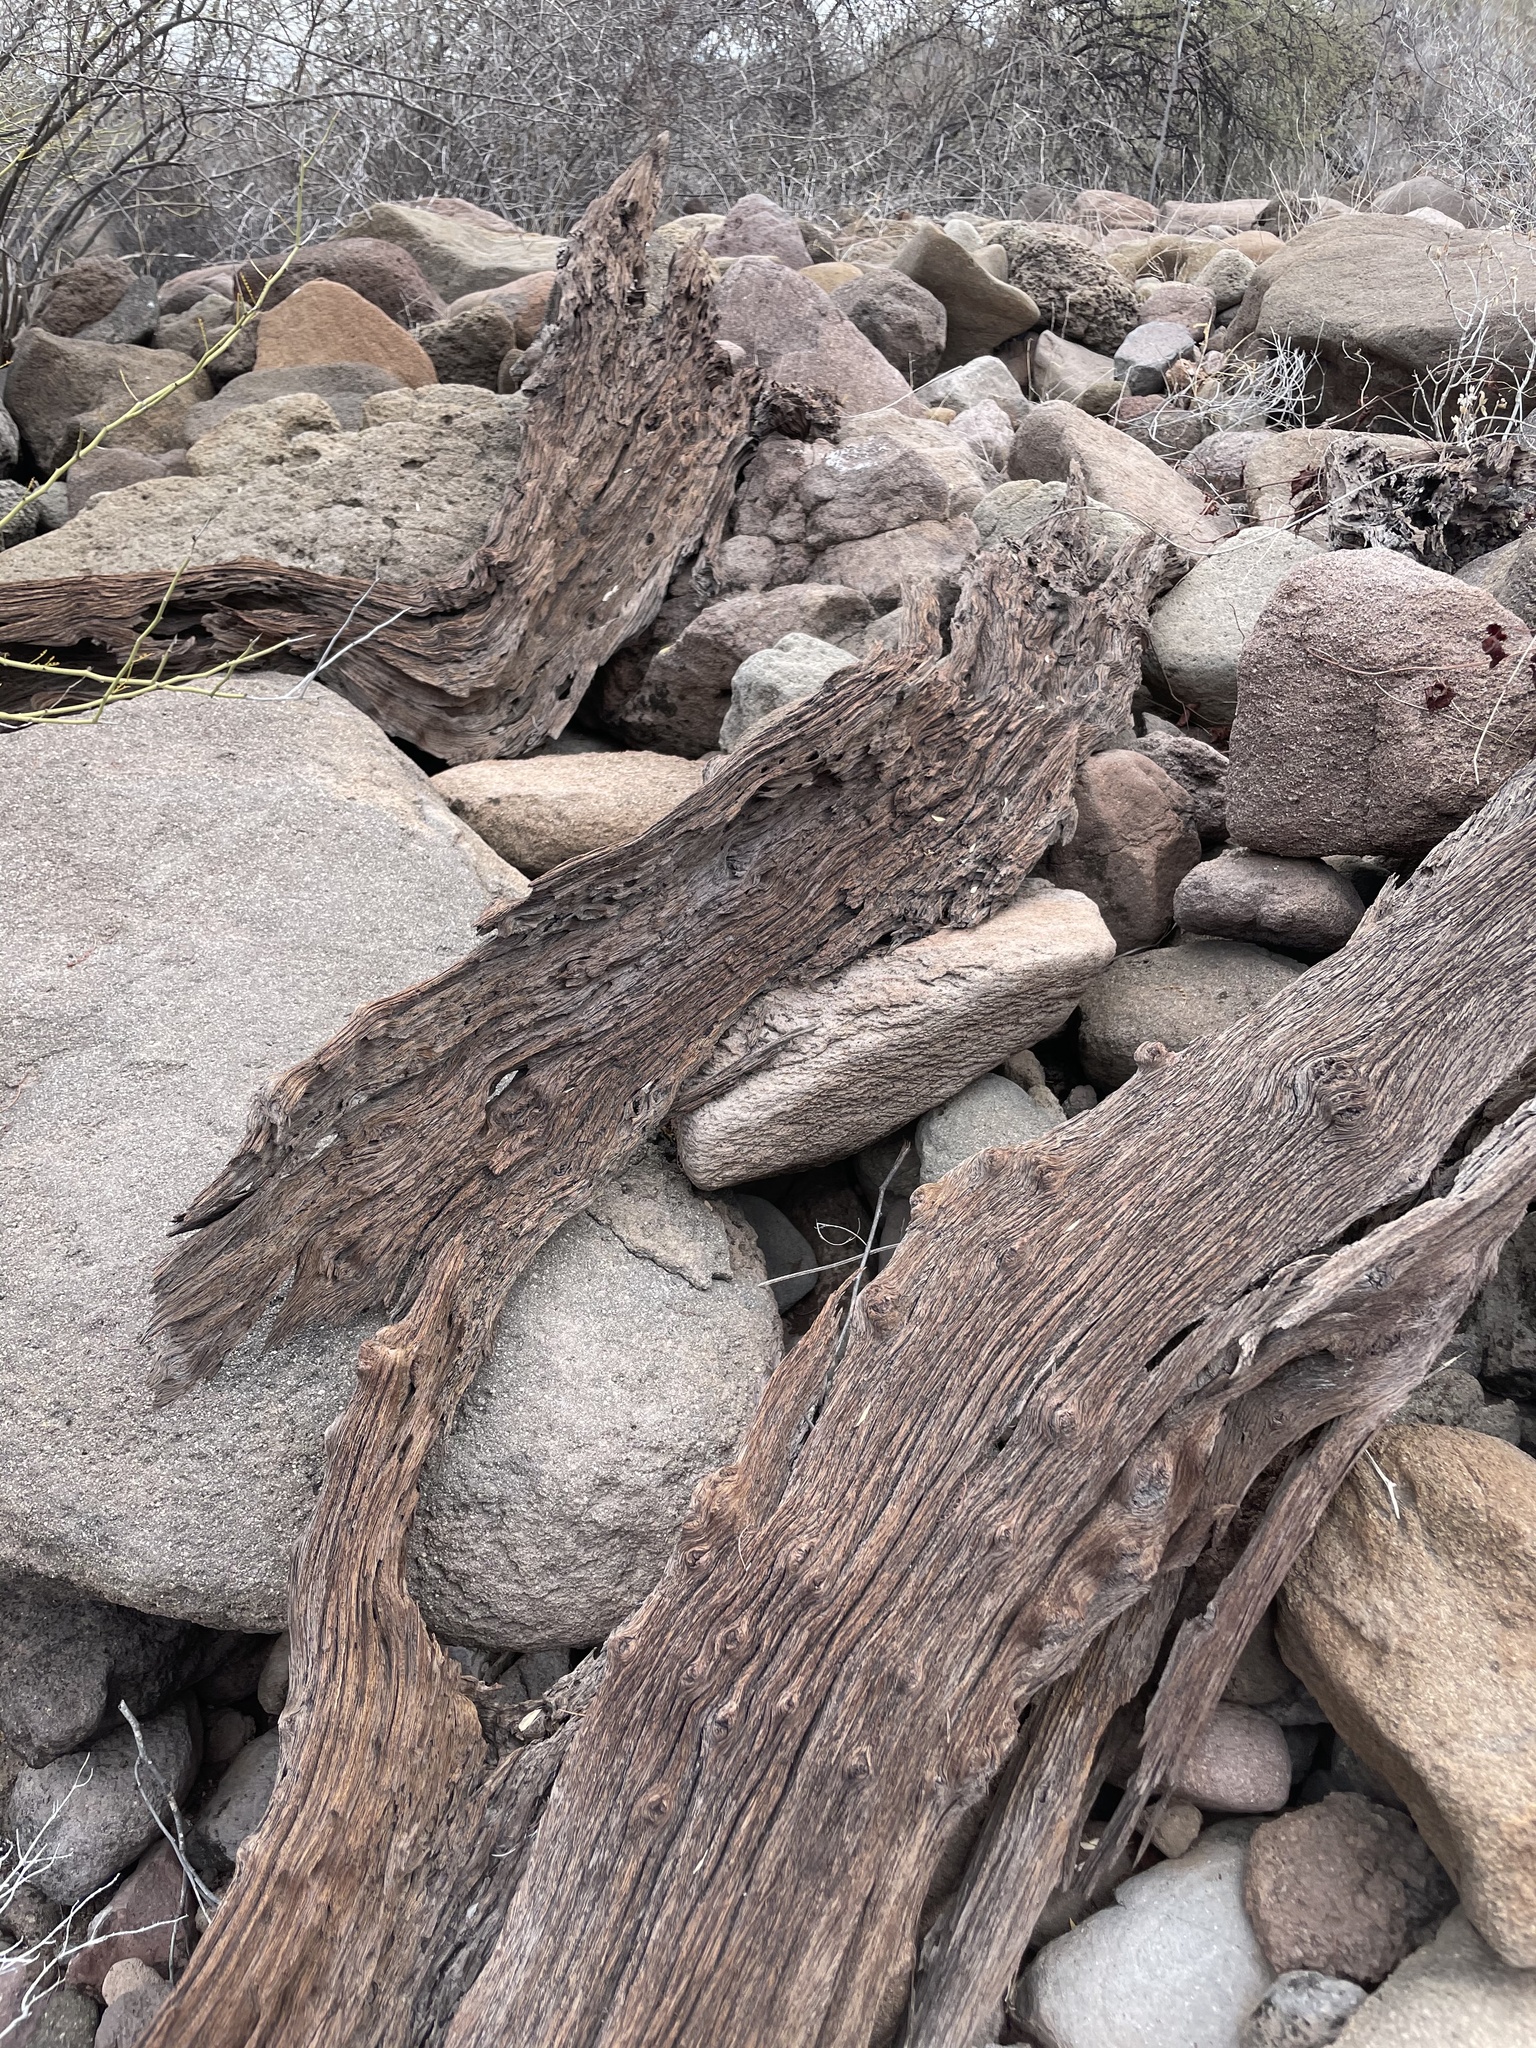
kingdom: Plantae
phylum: Tracheophyta
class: Magnoliopsida
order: Caryophyllales
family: Cactaceae
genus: Pachycereus
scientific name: Pachycereus pringlei
